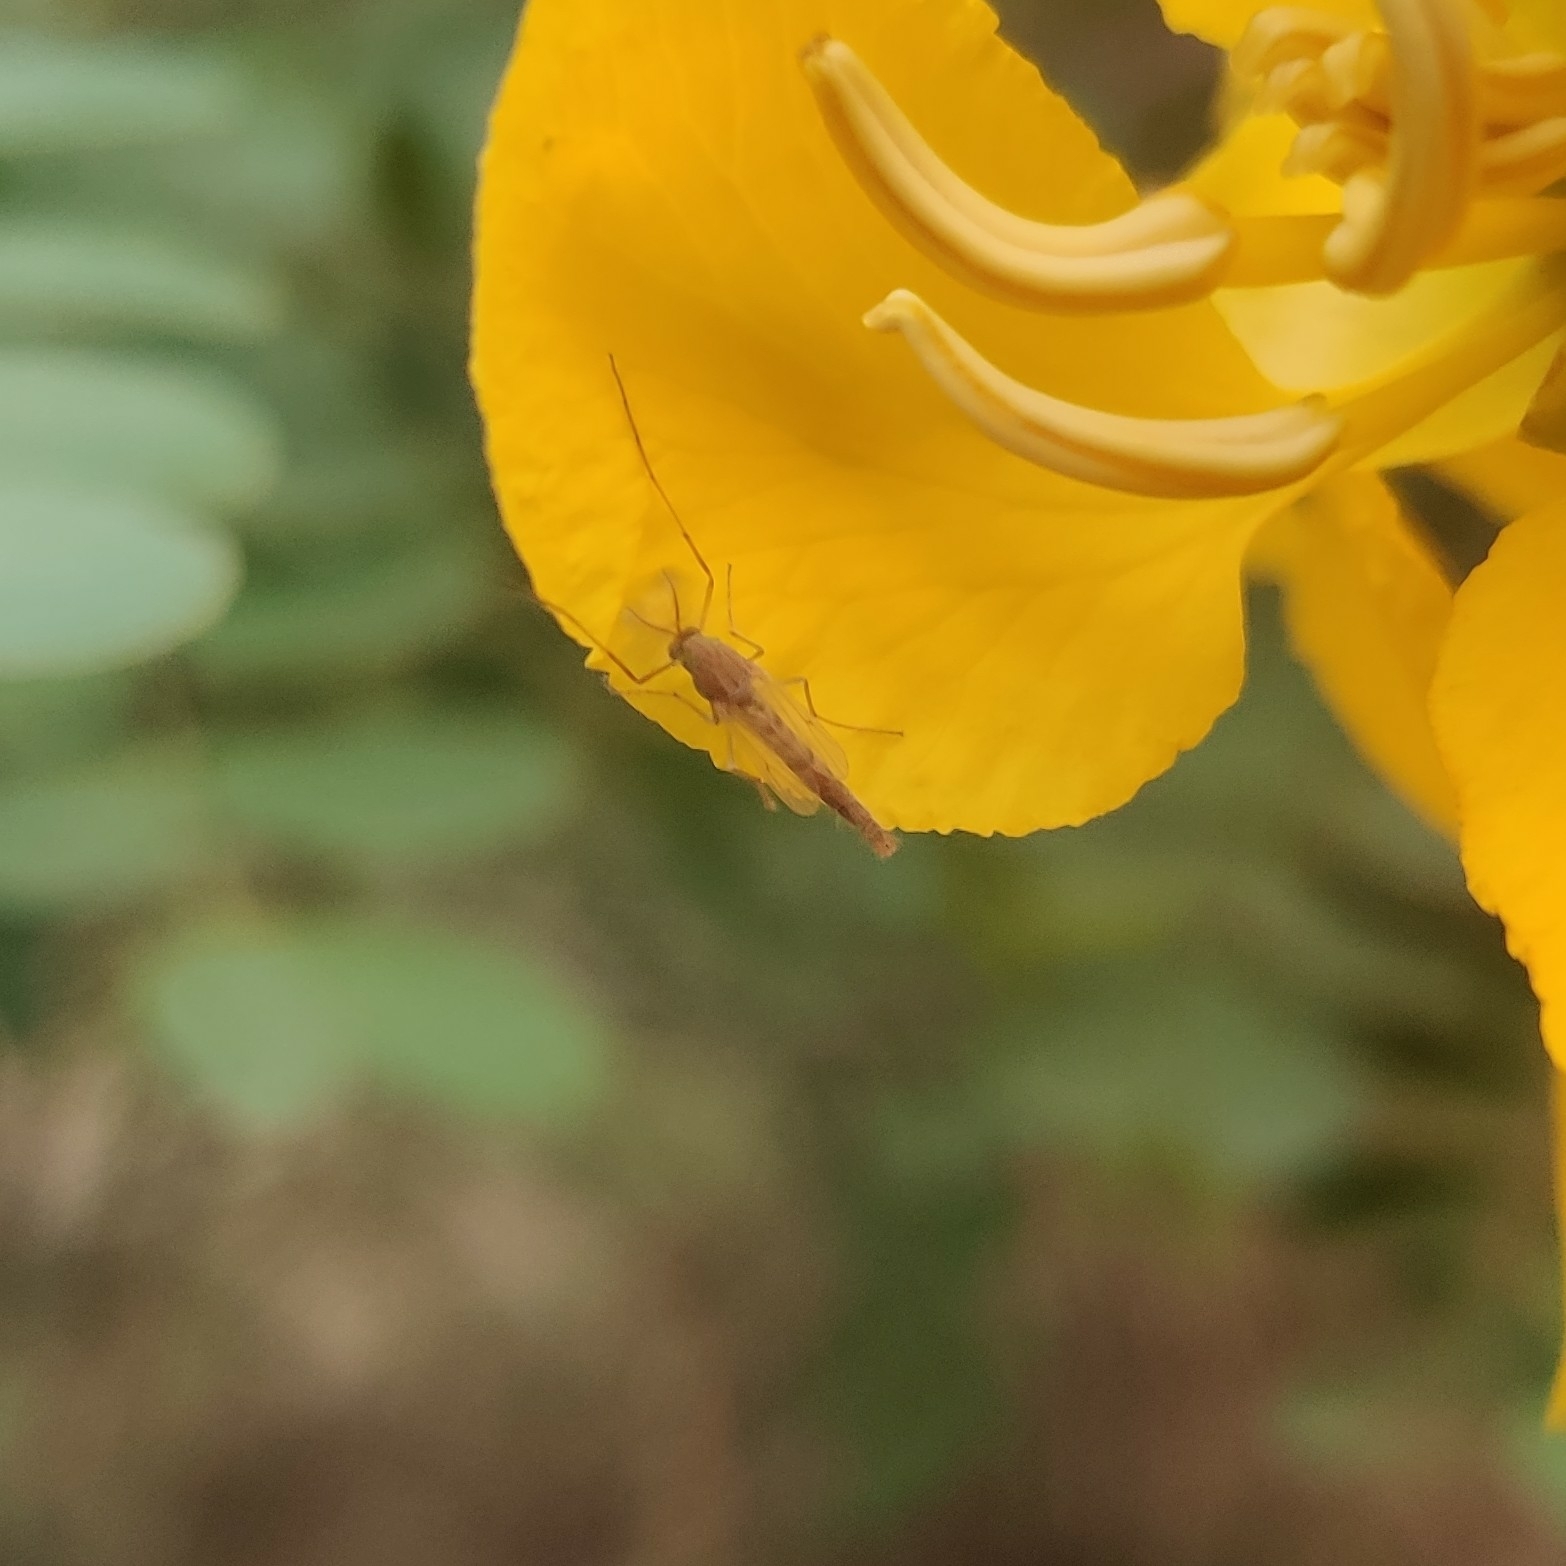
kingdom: Animalia
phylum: Arthropoda
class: Insecta
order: Diptera
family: Chironomidae
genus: Chironomus
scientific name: Chironomus
